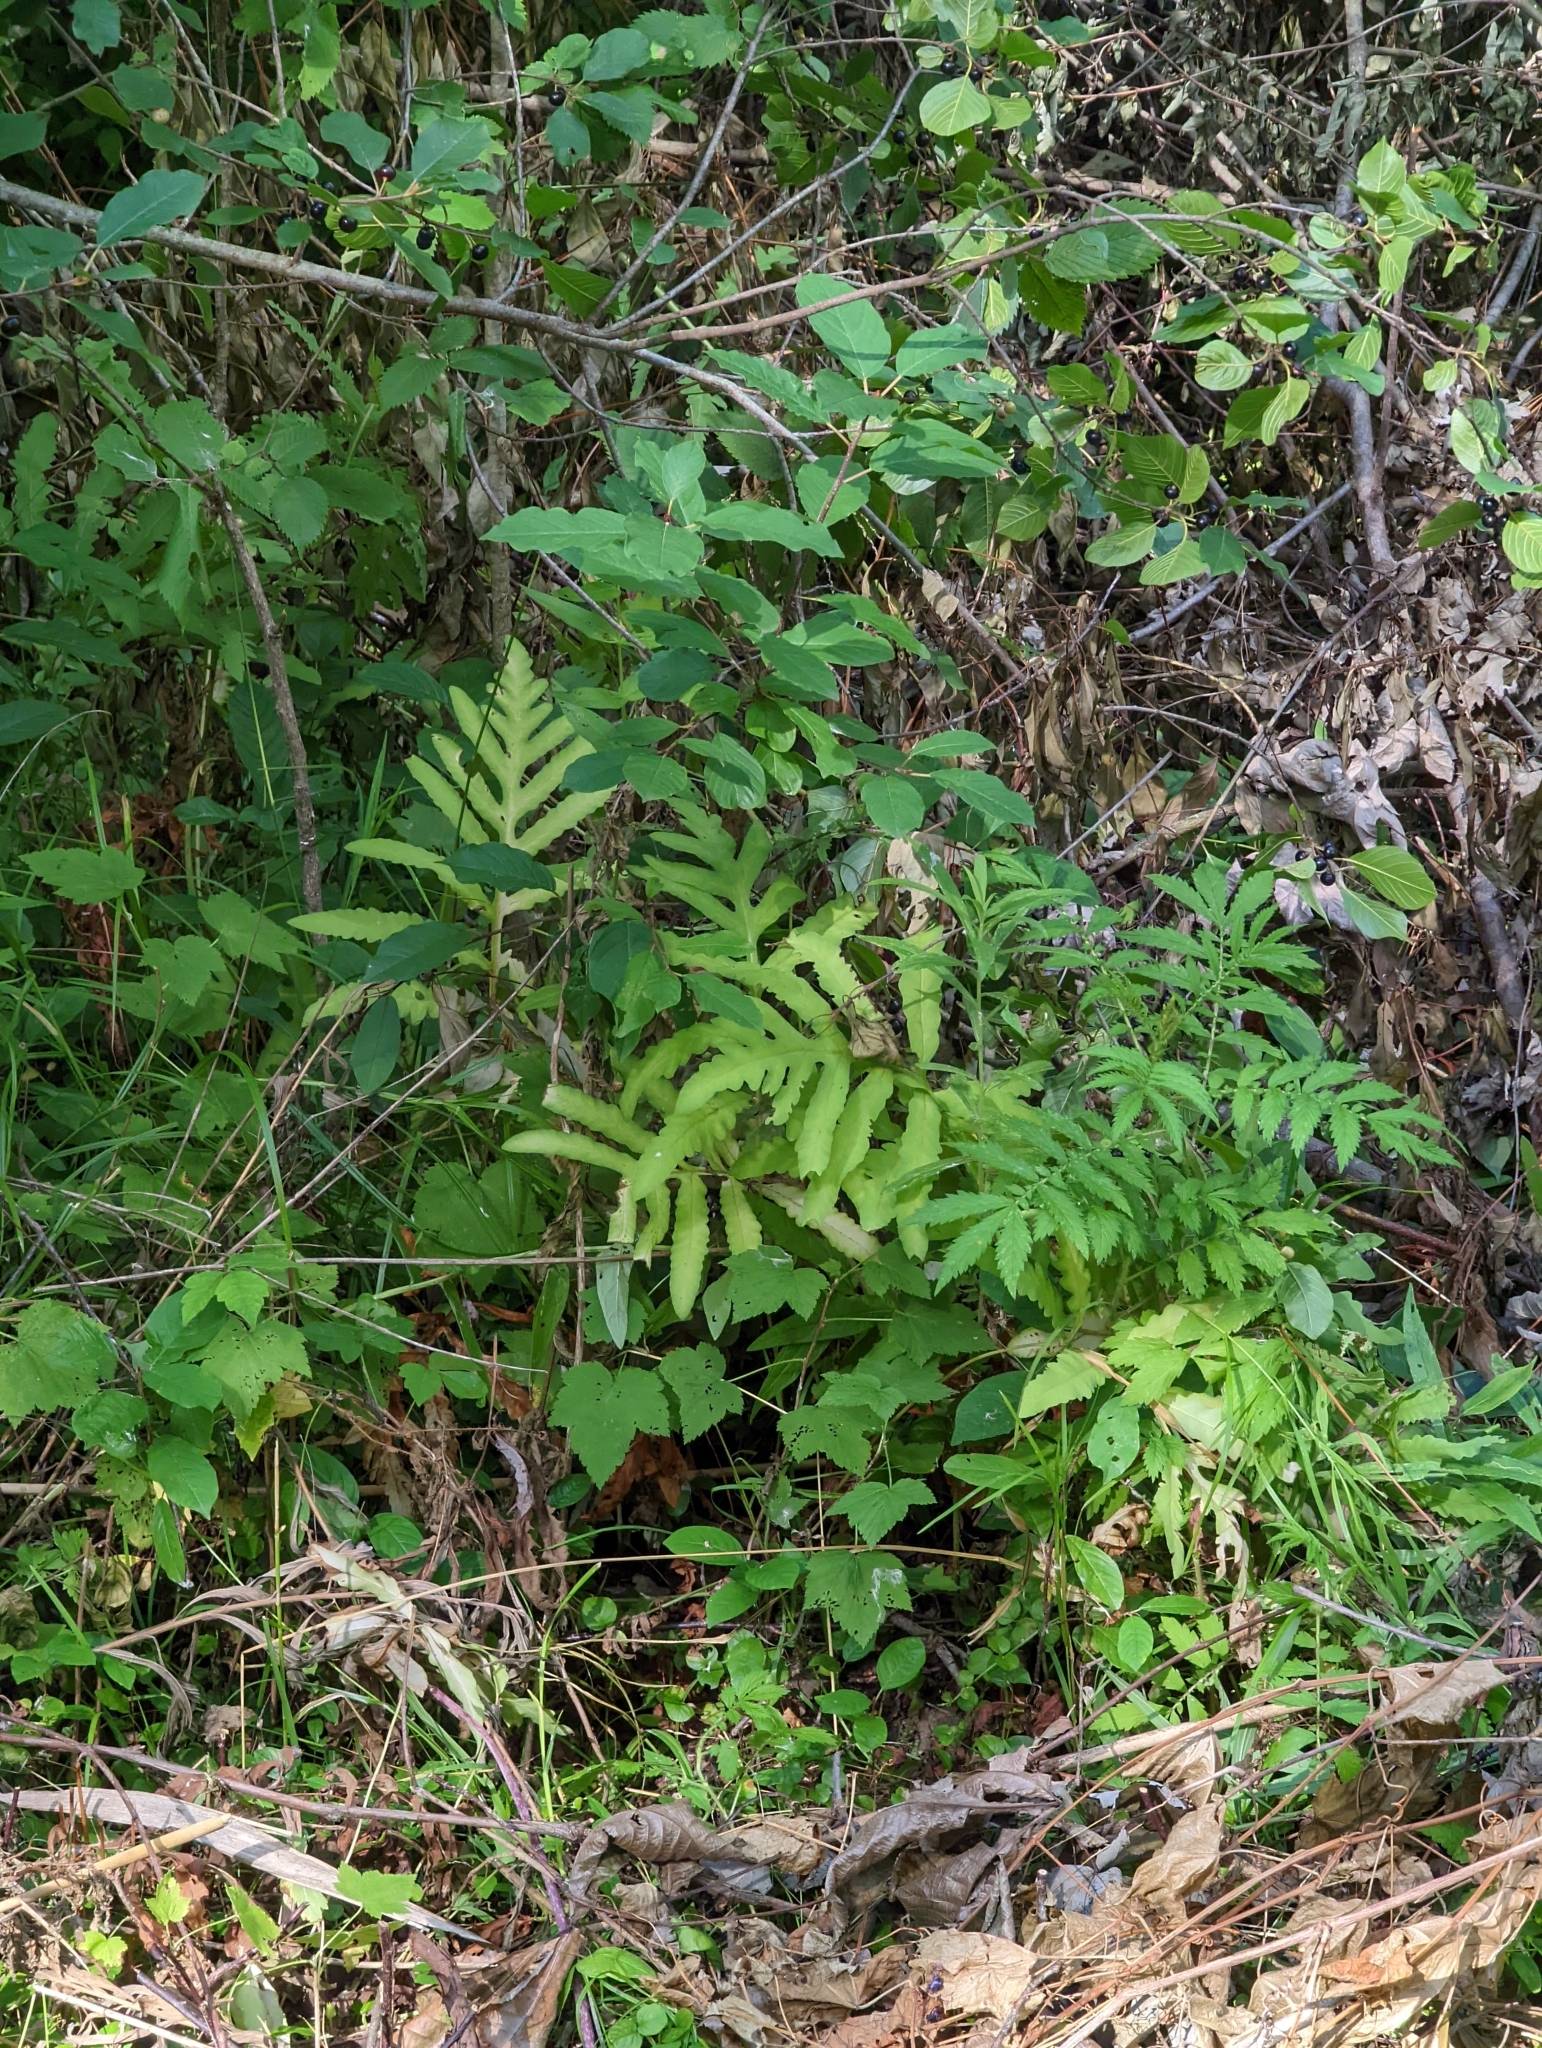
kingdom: Plantae
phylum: Tracheophyta
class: Polypodiopsida
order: Polypodiales
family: Onocleaceae
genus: Onoclea
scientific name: Onoclea sensibilis
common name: Sensitive fern
